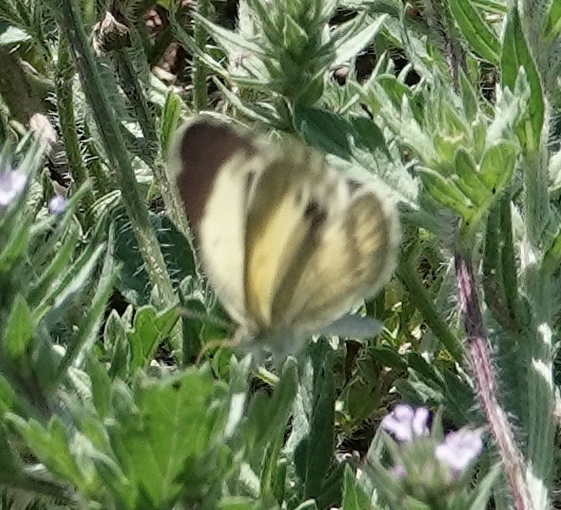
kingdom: Animalia
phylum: Arthropoda
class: Insecta
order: Lepidoptera
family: Pieridae
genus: Nathalis
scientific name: Nathalis iole
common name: Dainty sulphur
